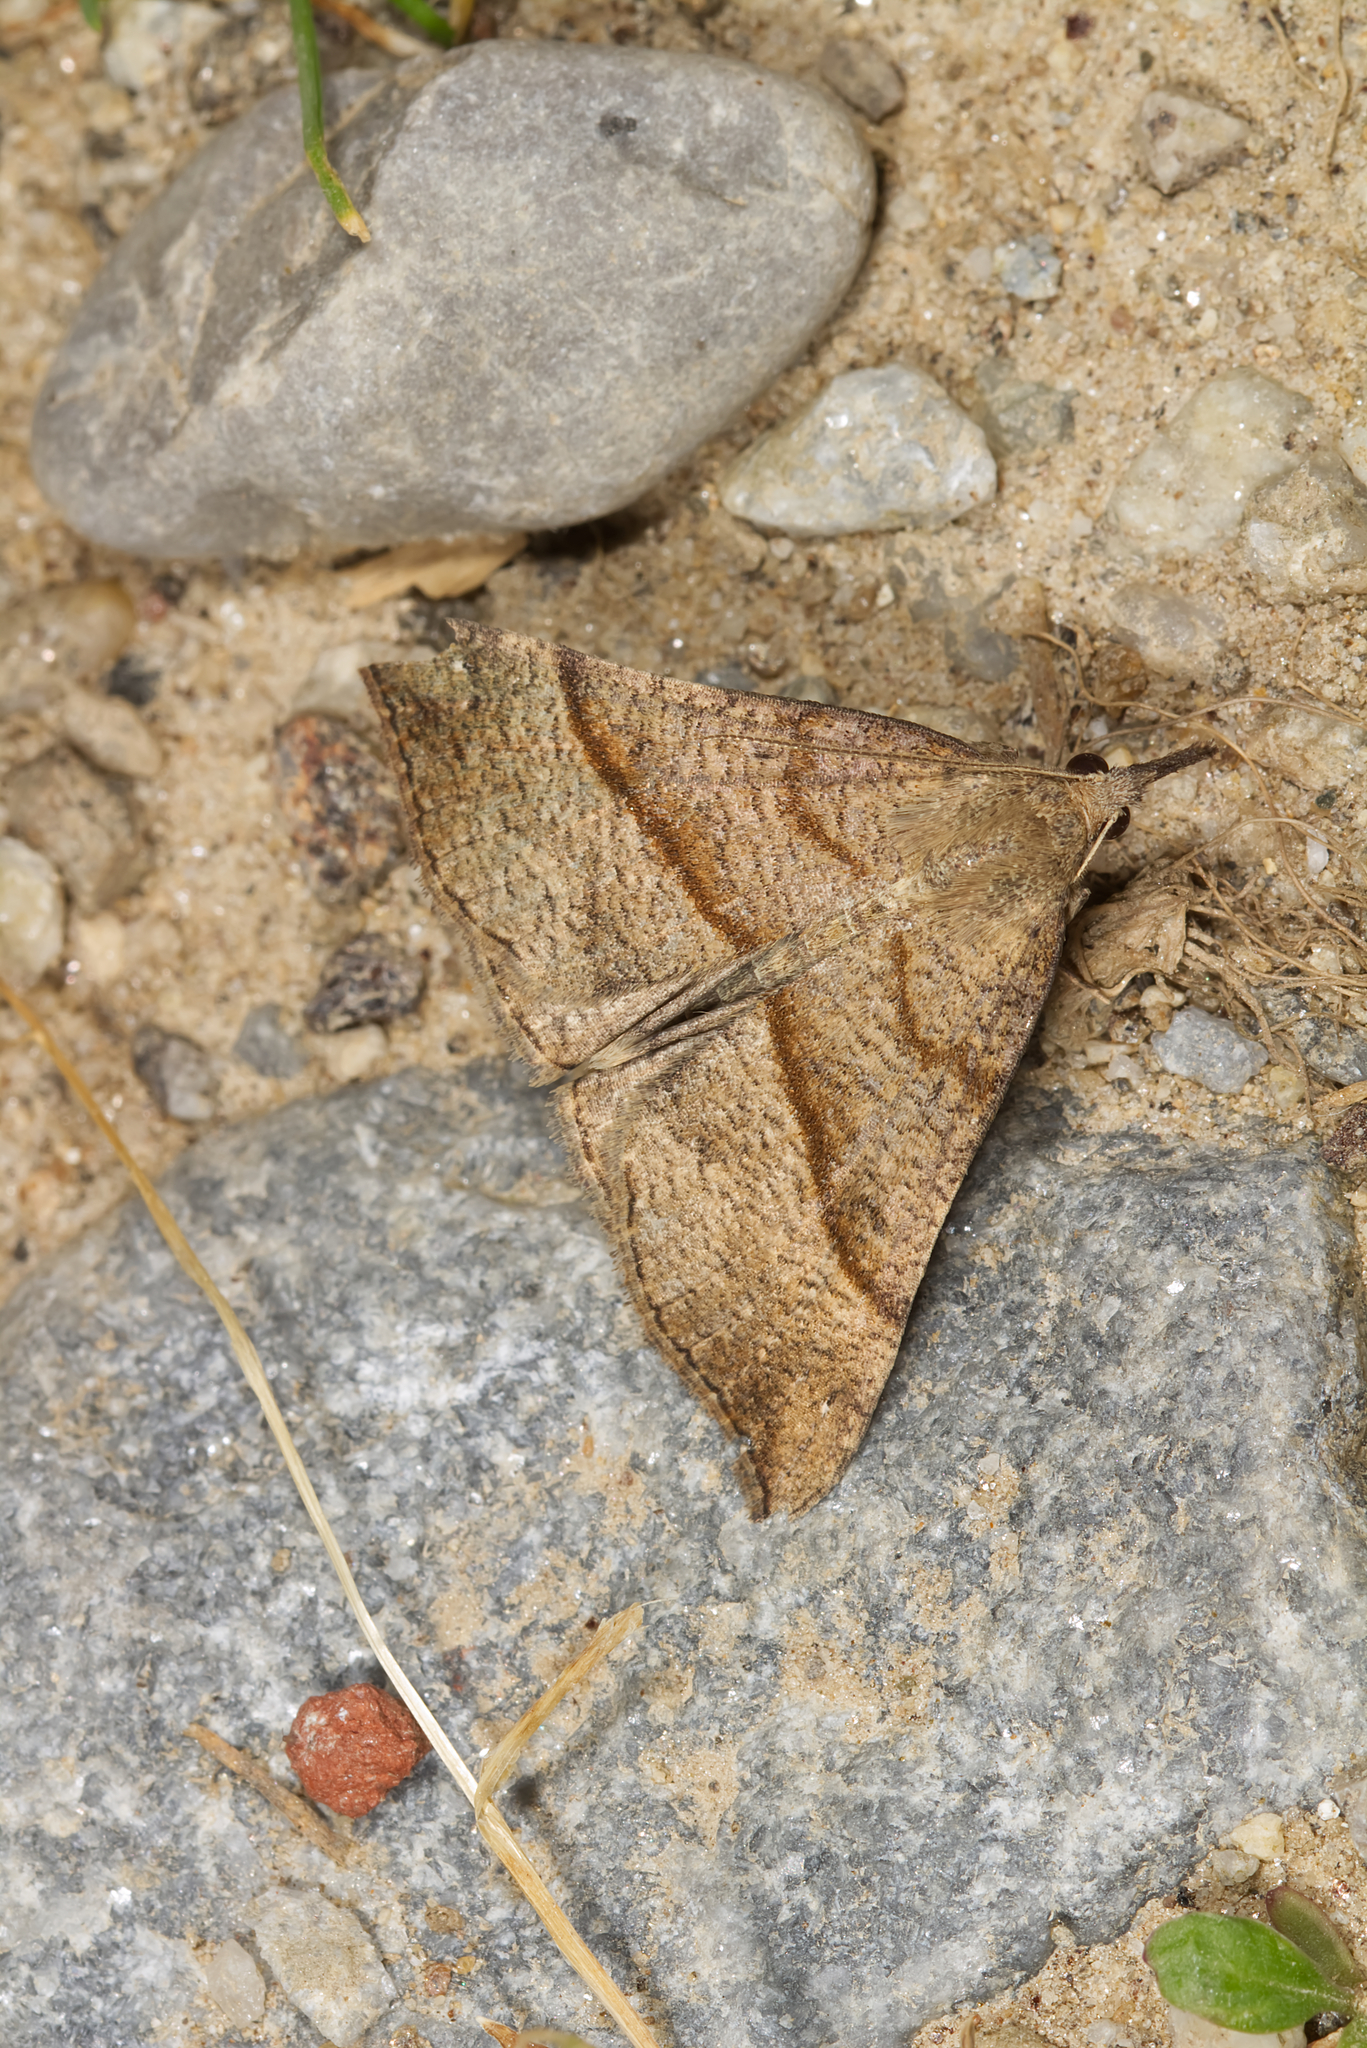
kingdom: Animalia
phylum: Arthropoda
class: Insecta
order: Lepidoptera
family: Erebidae
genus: Hypena
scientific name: Hypena proboscidalis
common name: Snout
